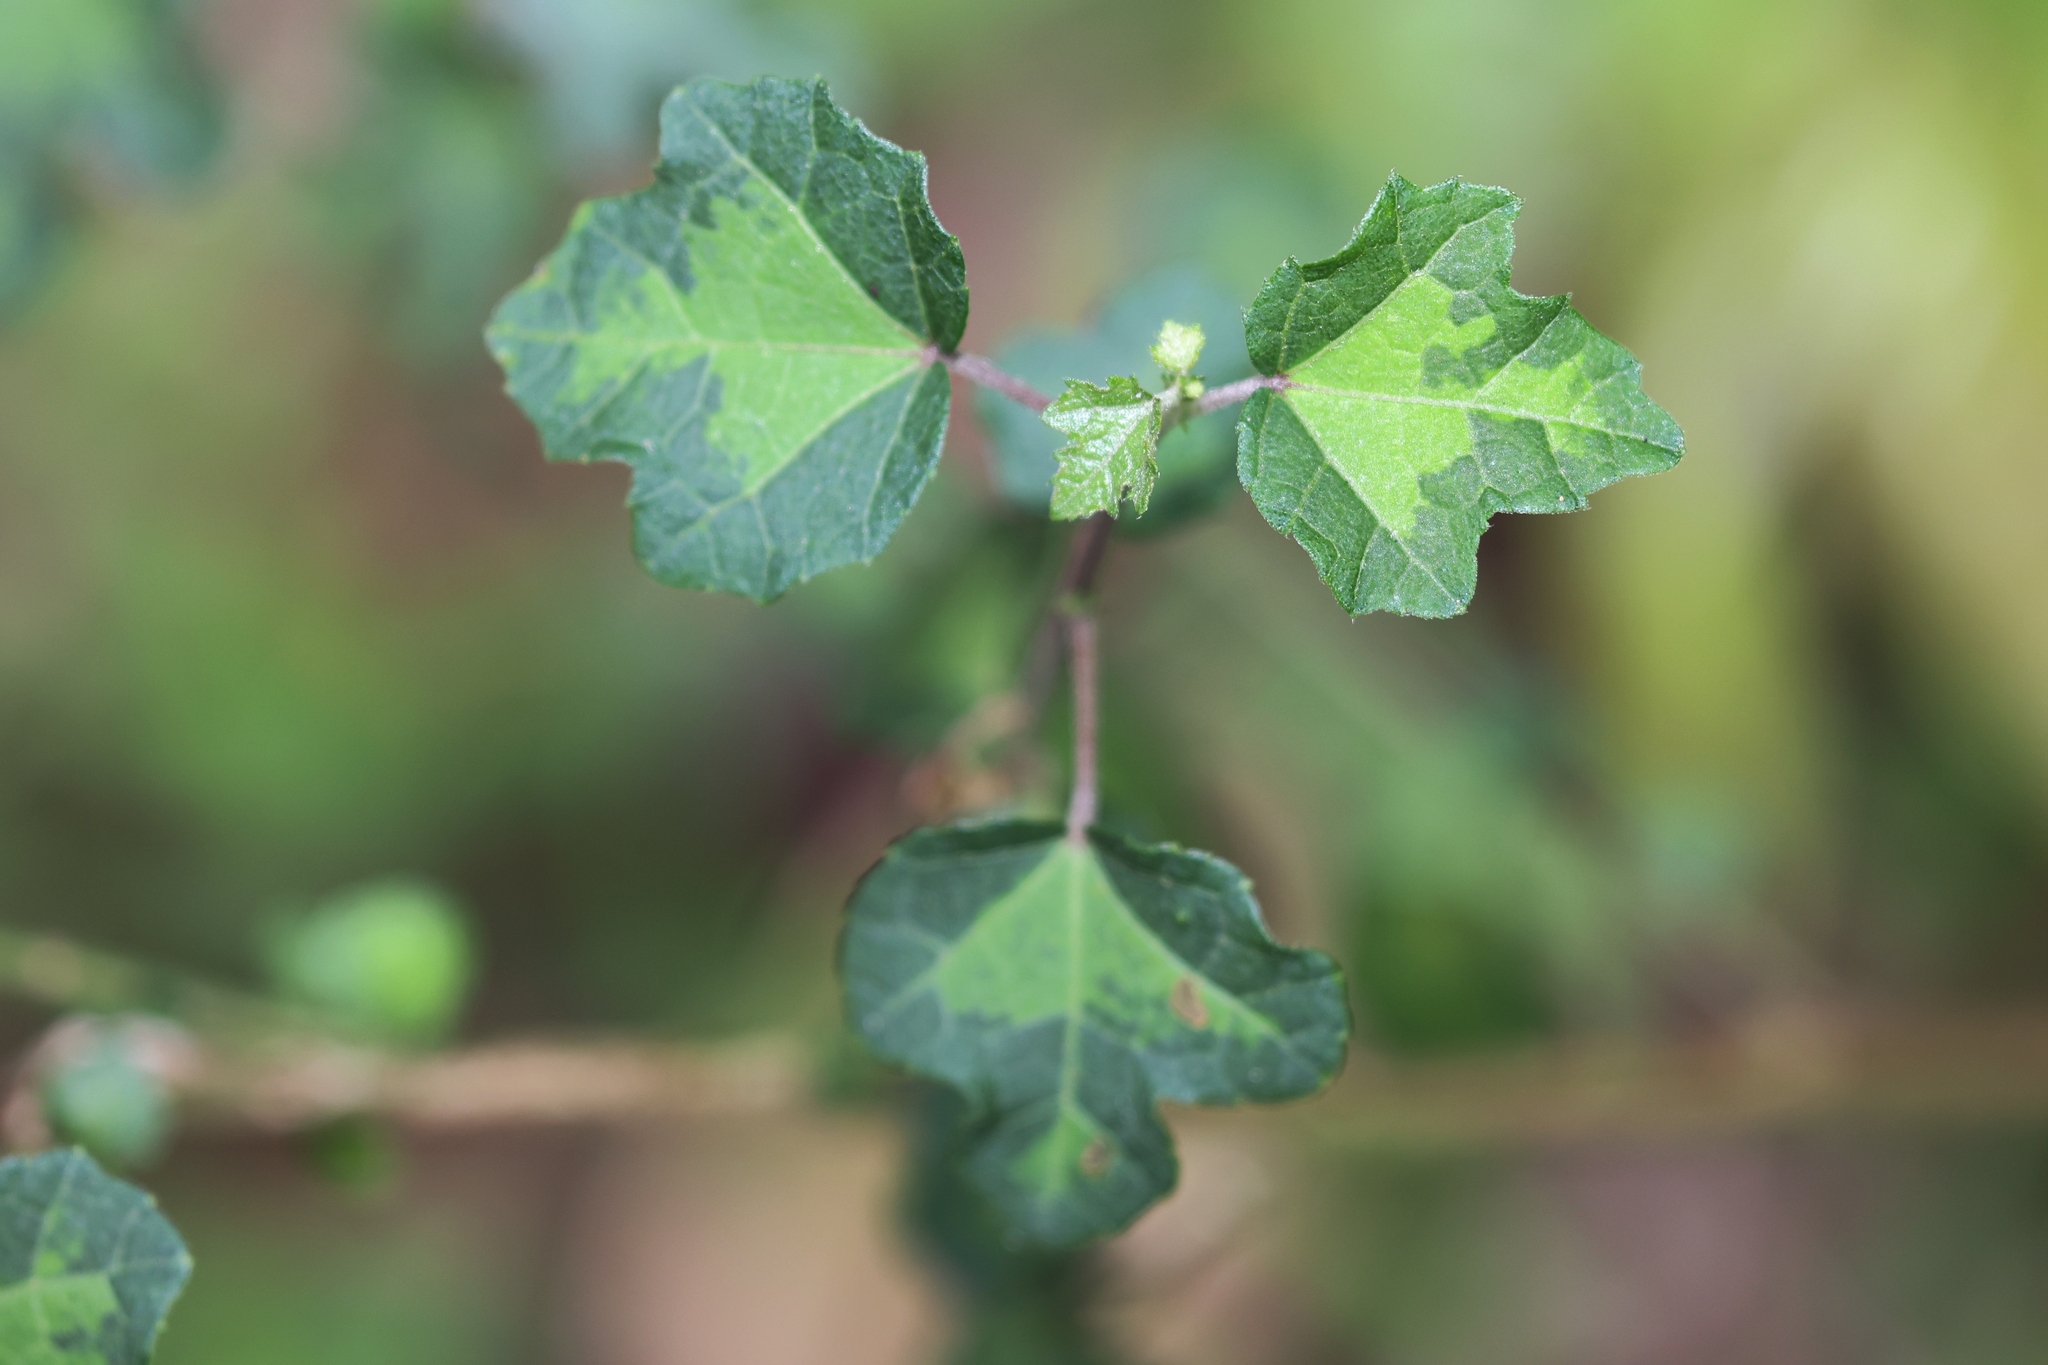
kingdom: Plantae
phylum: Tracheophyta
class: Magnoliopsida
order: Malvales
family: Malvaceae
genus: Urena
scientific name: Urena procumbens
